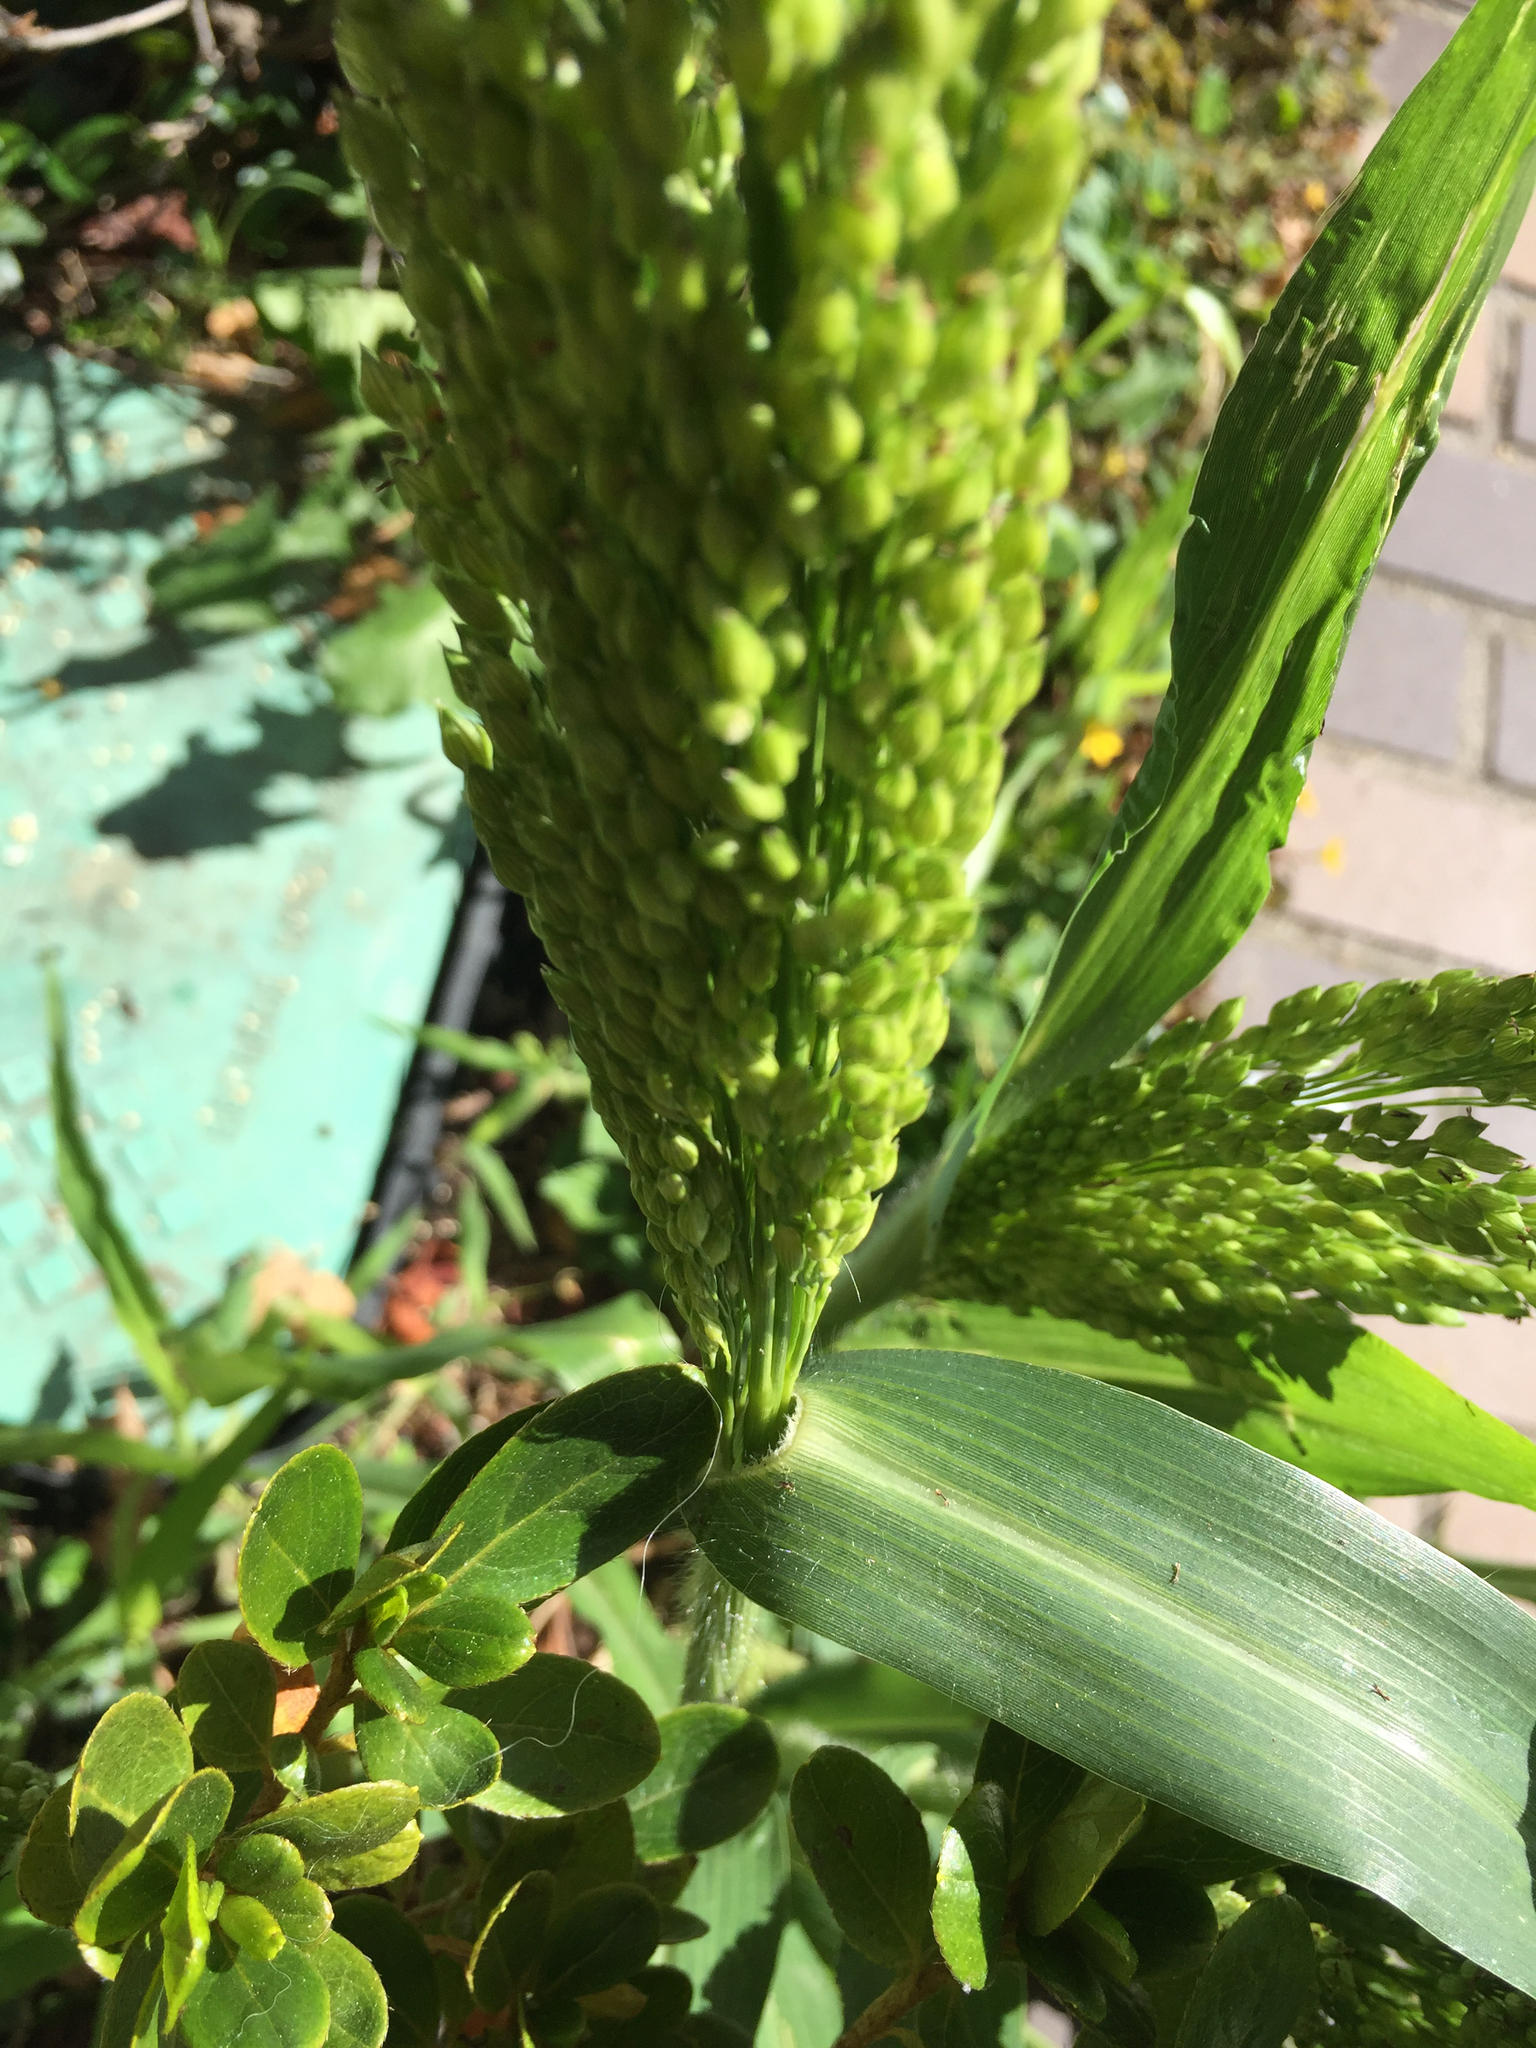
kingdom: Plantae
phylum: Tracheophyta
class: Liliopsida
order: Poales
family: Poaceae
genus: Panicum
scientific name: Panicum miliaceum
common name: Common millet
